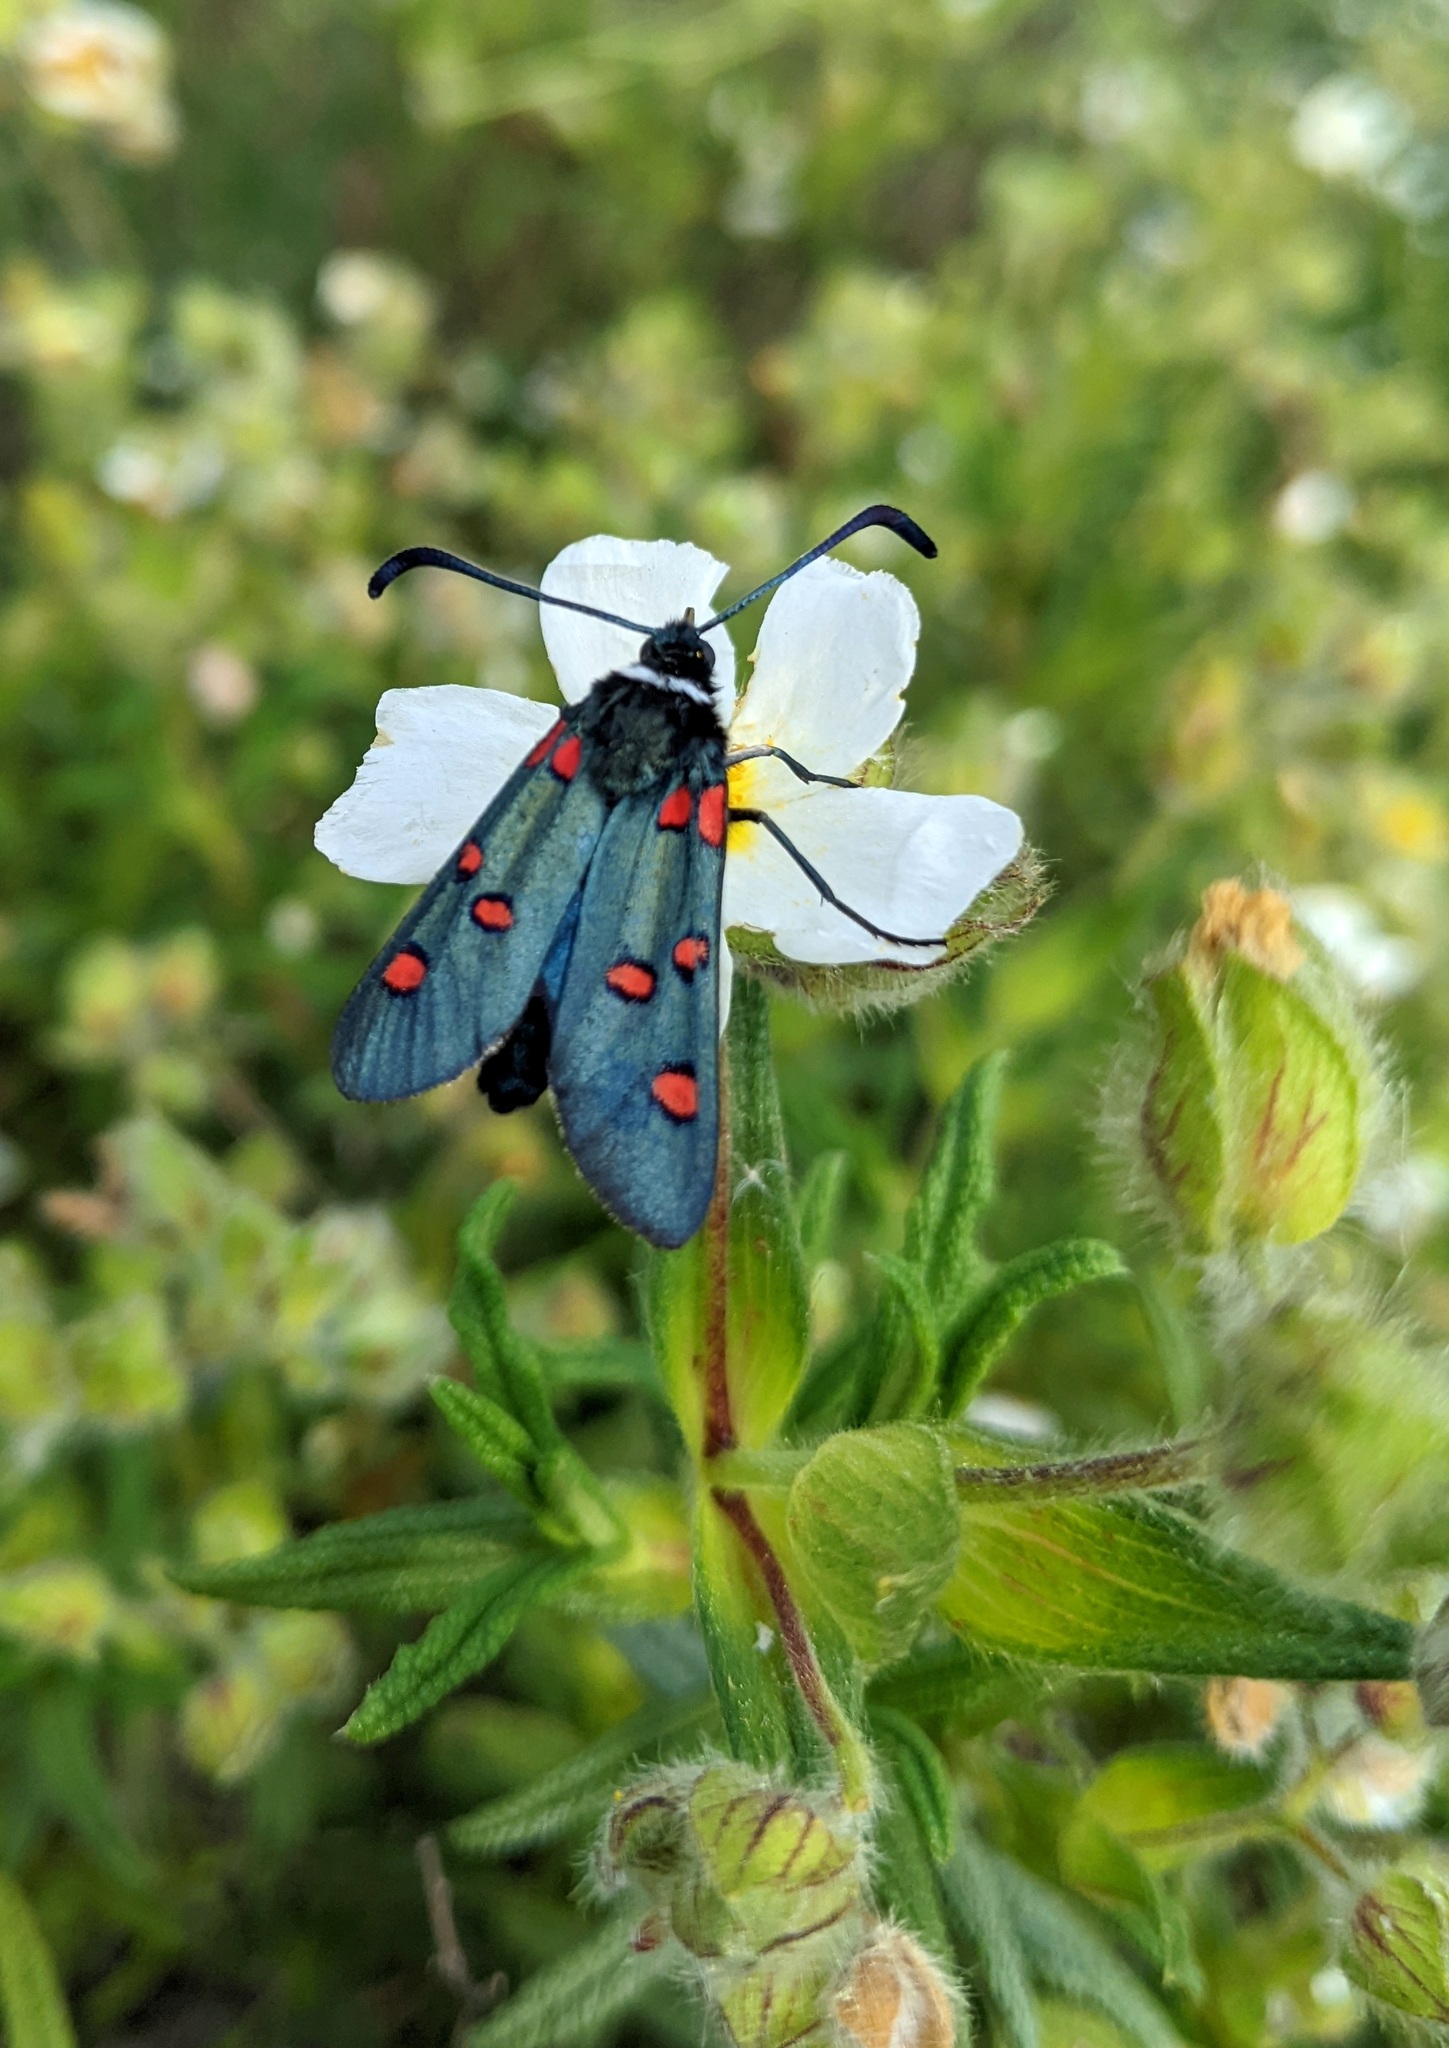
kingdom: Animalia
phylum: Arthropoda
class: Insecta
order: Lepidoptera
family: Zygaenidae
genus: Zygaena
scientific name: Zygaena lavandulae
